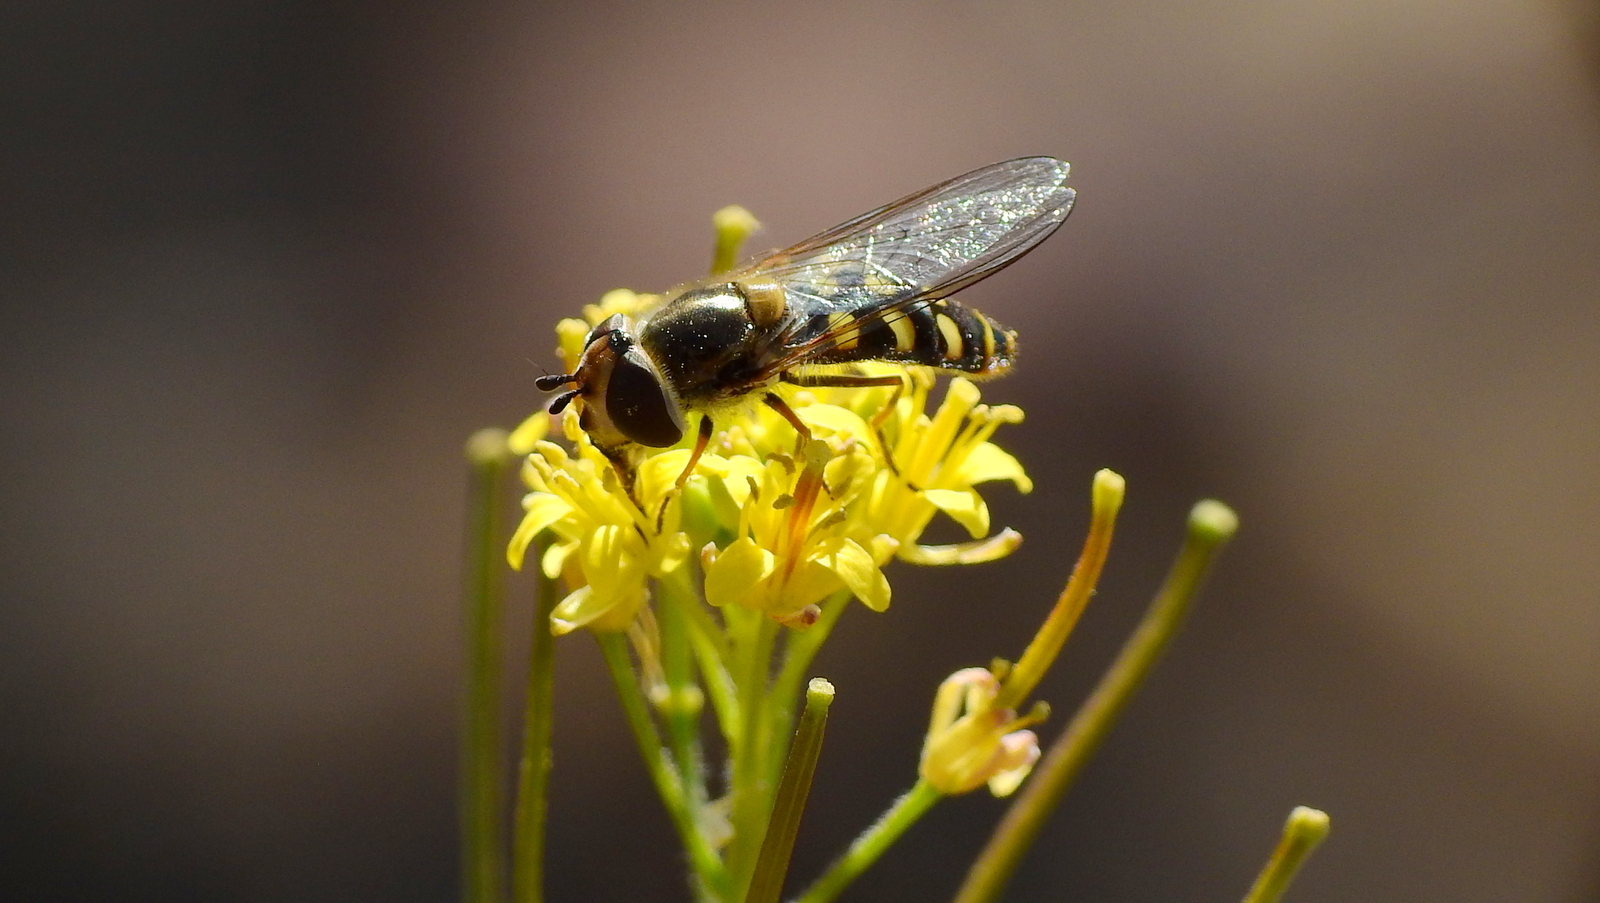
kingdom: Animalia
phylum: Arthropoda
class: Insecta
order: Diptera
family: Syrphidae
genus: Austroscaeva
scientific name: Austroscaeva occidentalis
